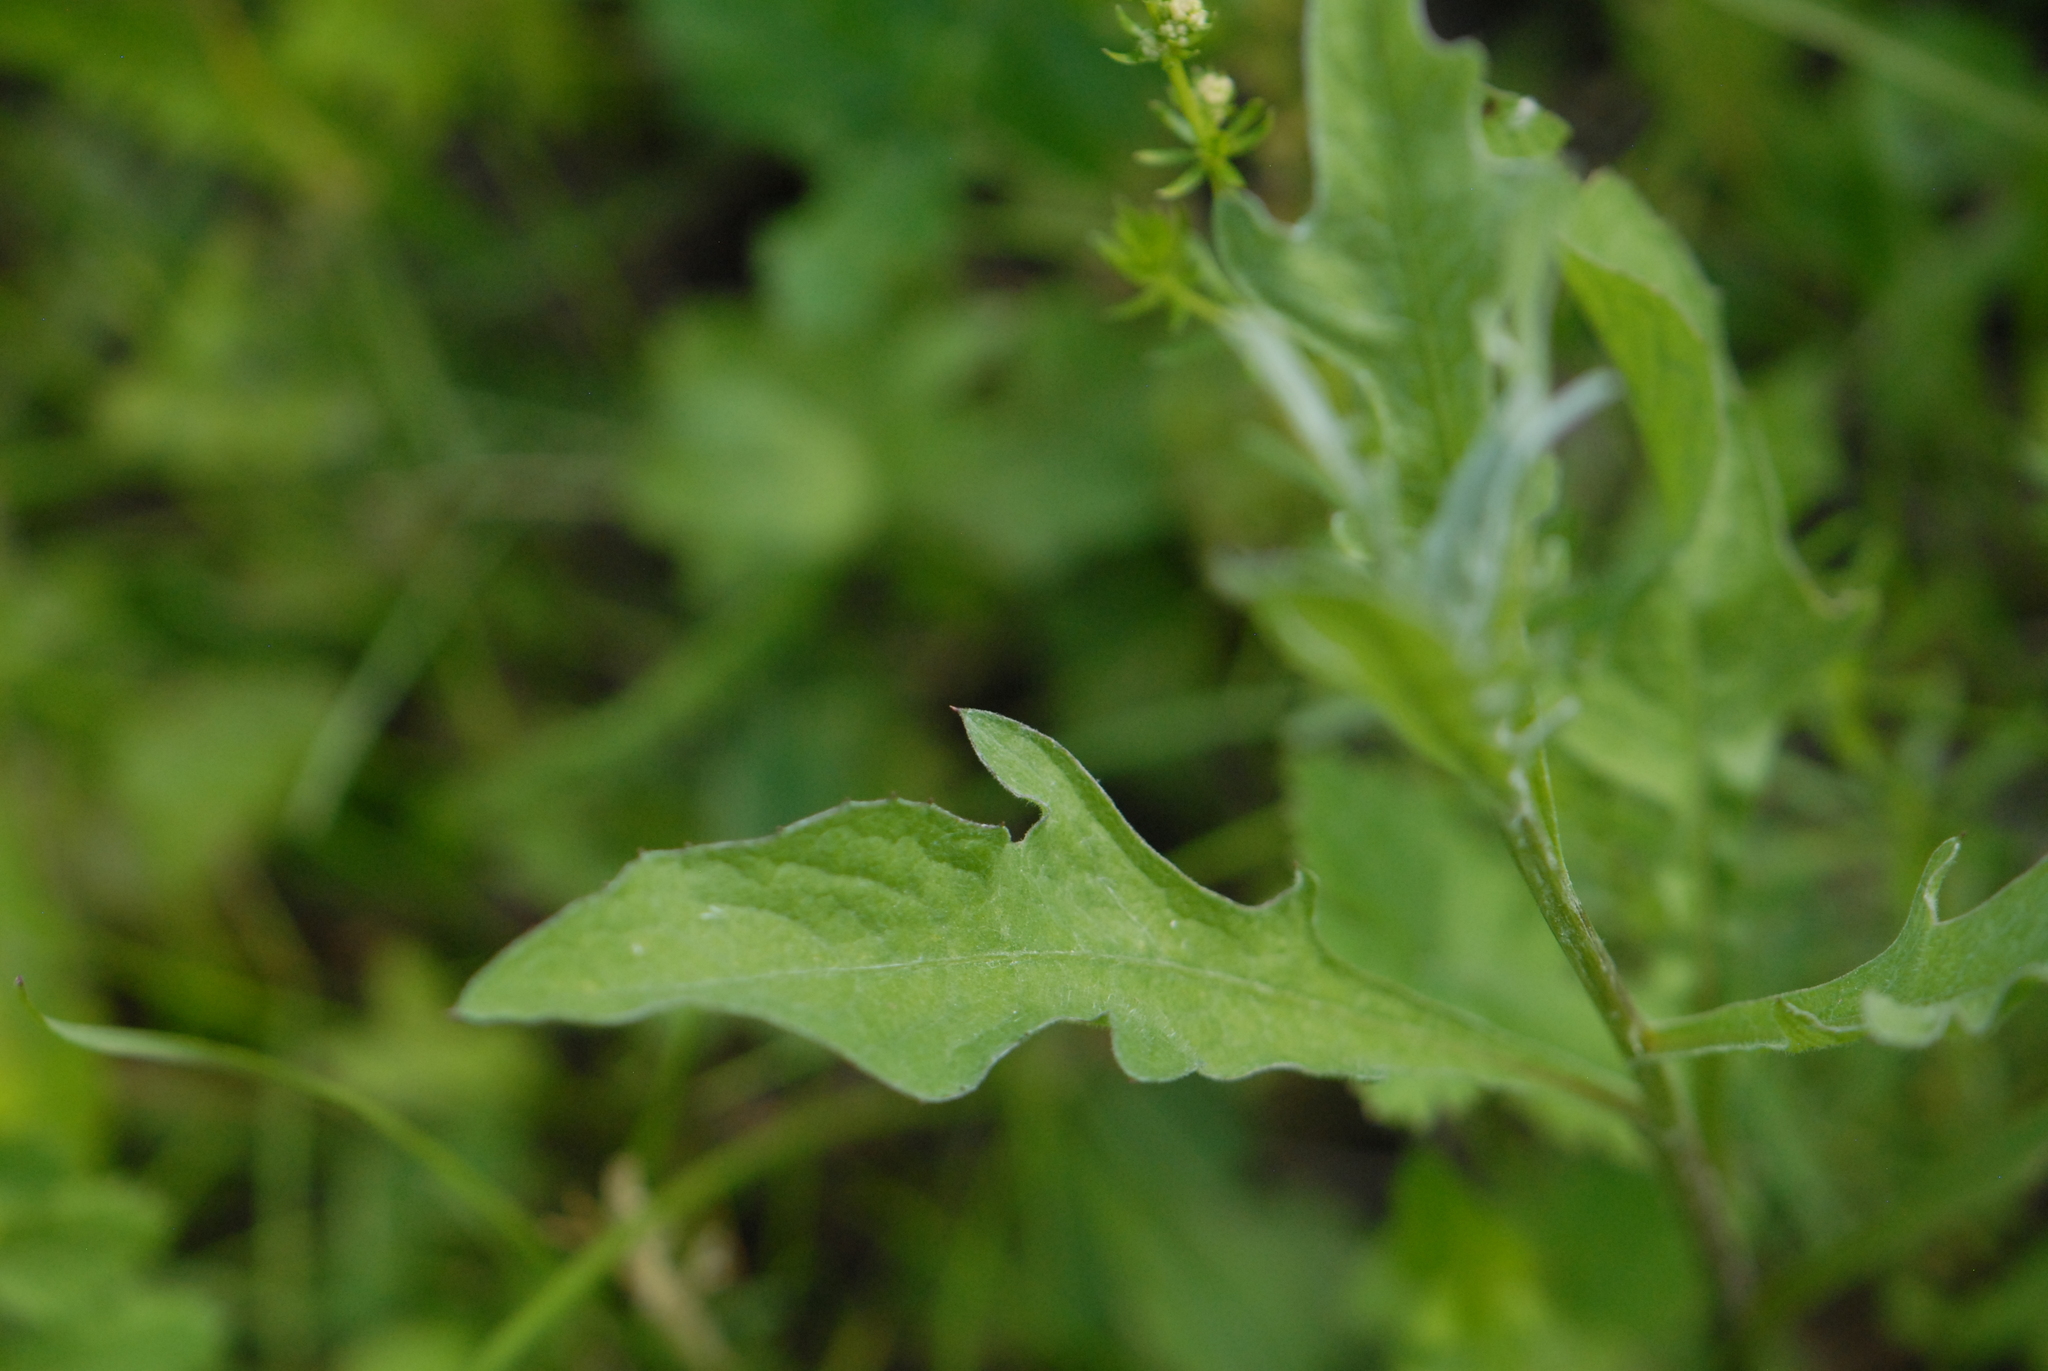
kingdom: Plantae
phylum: Tracheophyta
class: Magnoliopsida
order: Asterales
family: Asteraceae
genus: Centaurea
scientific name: Centaurea jacea
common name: Brown knapweed
